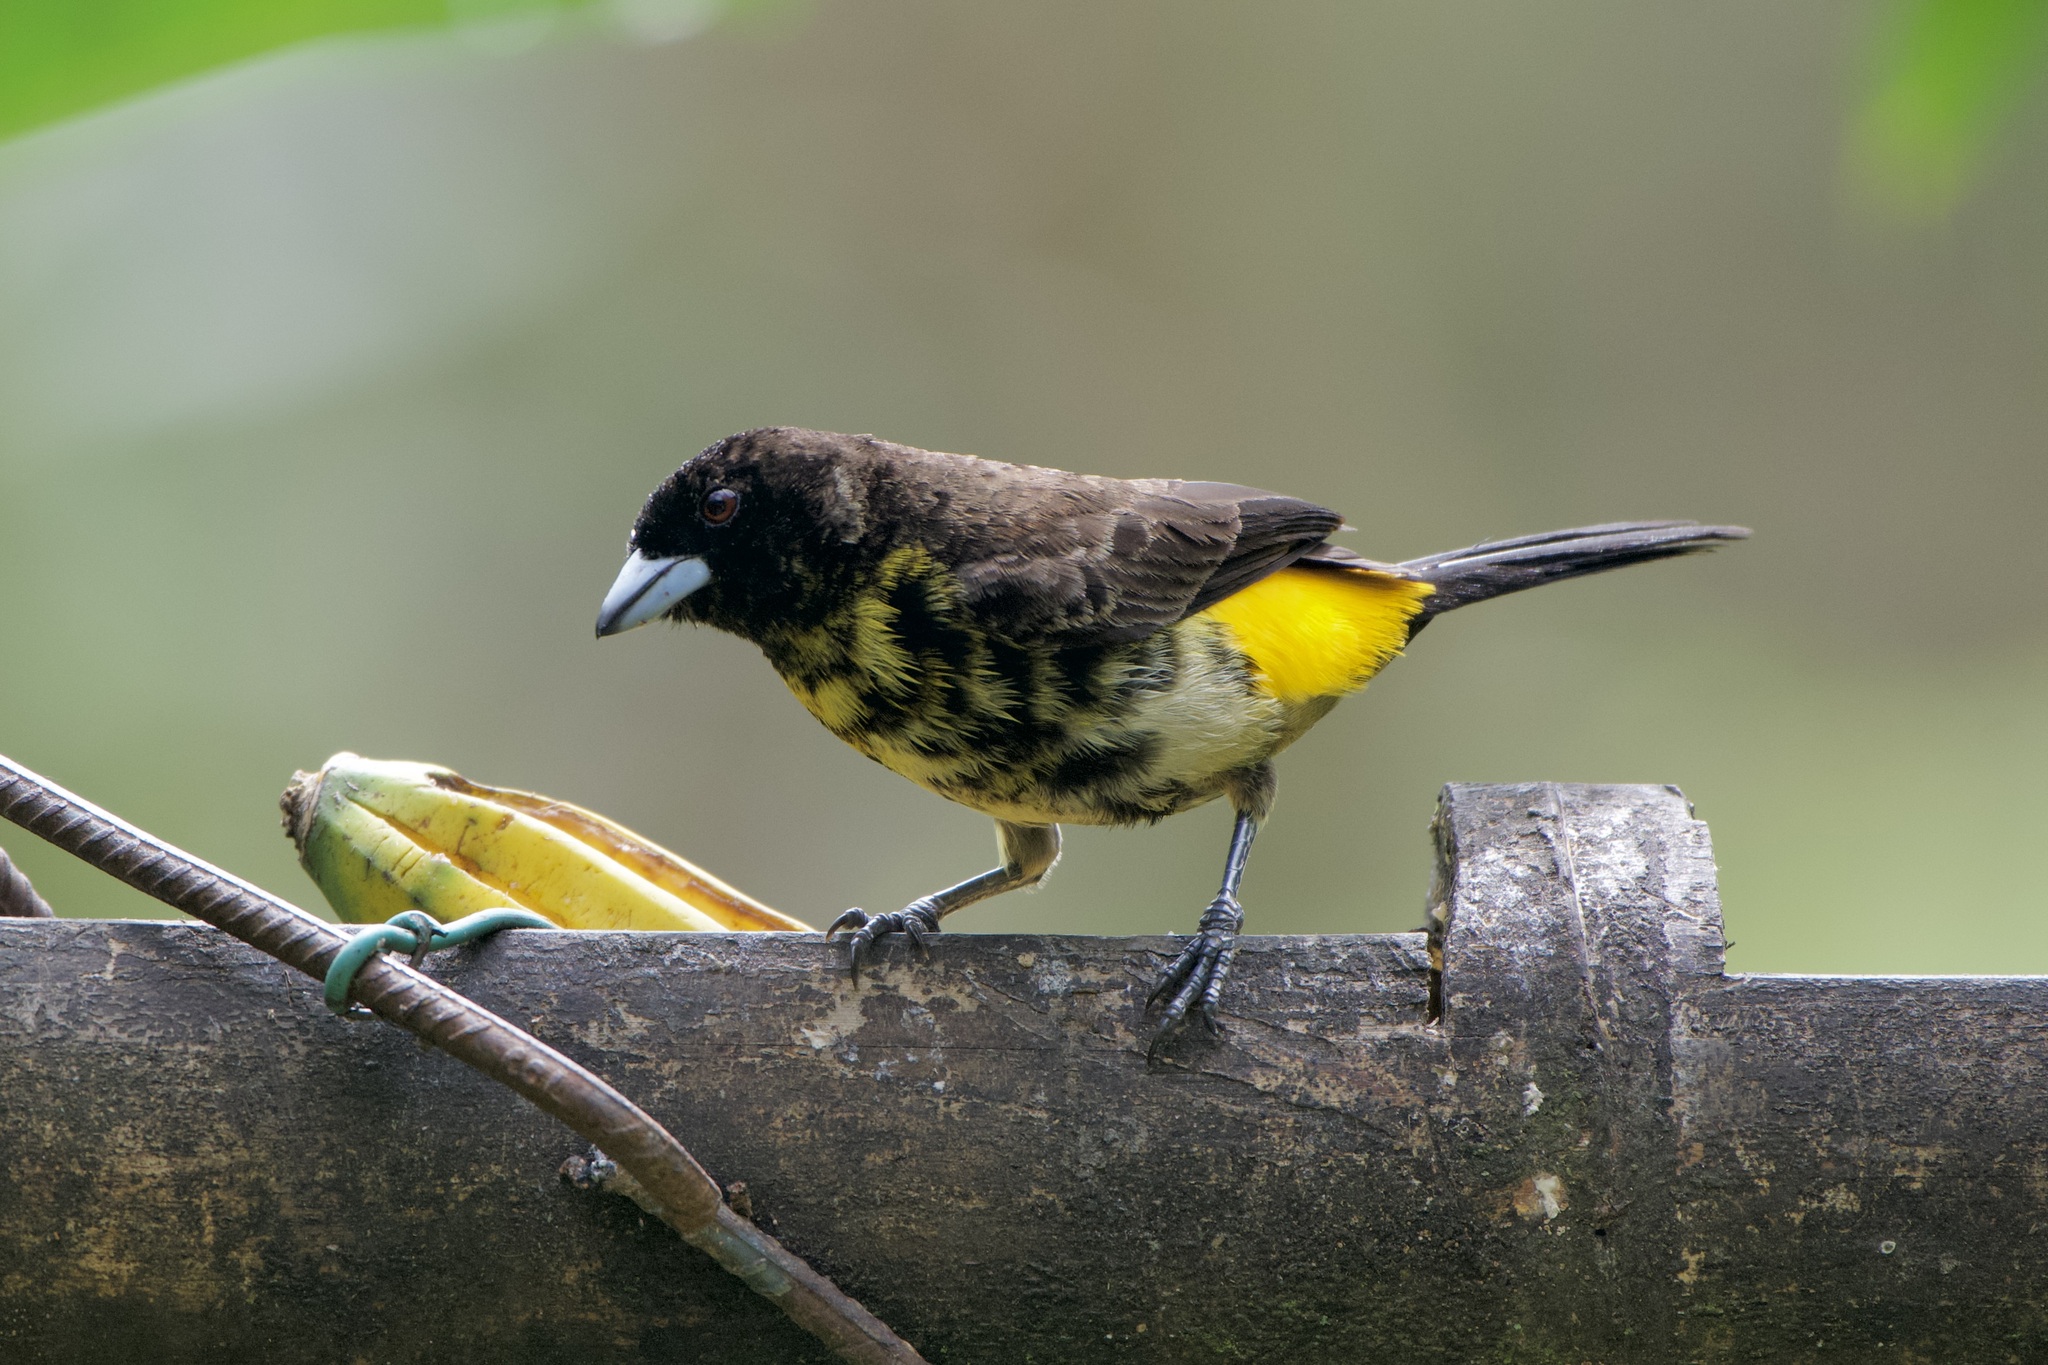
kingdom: Animalia
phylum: Chordata
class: Aves
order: Passeriformes
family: Thraupidae
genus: Ramphocelus
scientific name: Ramphocelus flammigerus
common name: Flame-rumped tanager
